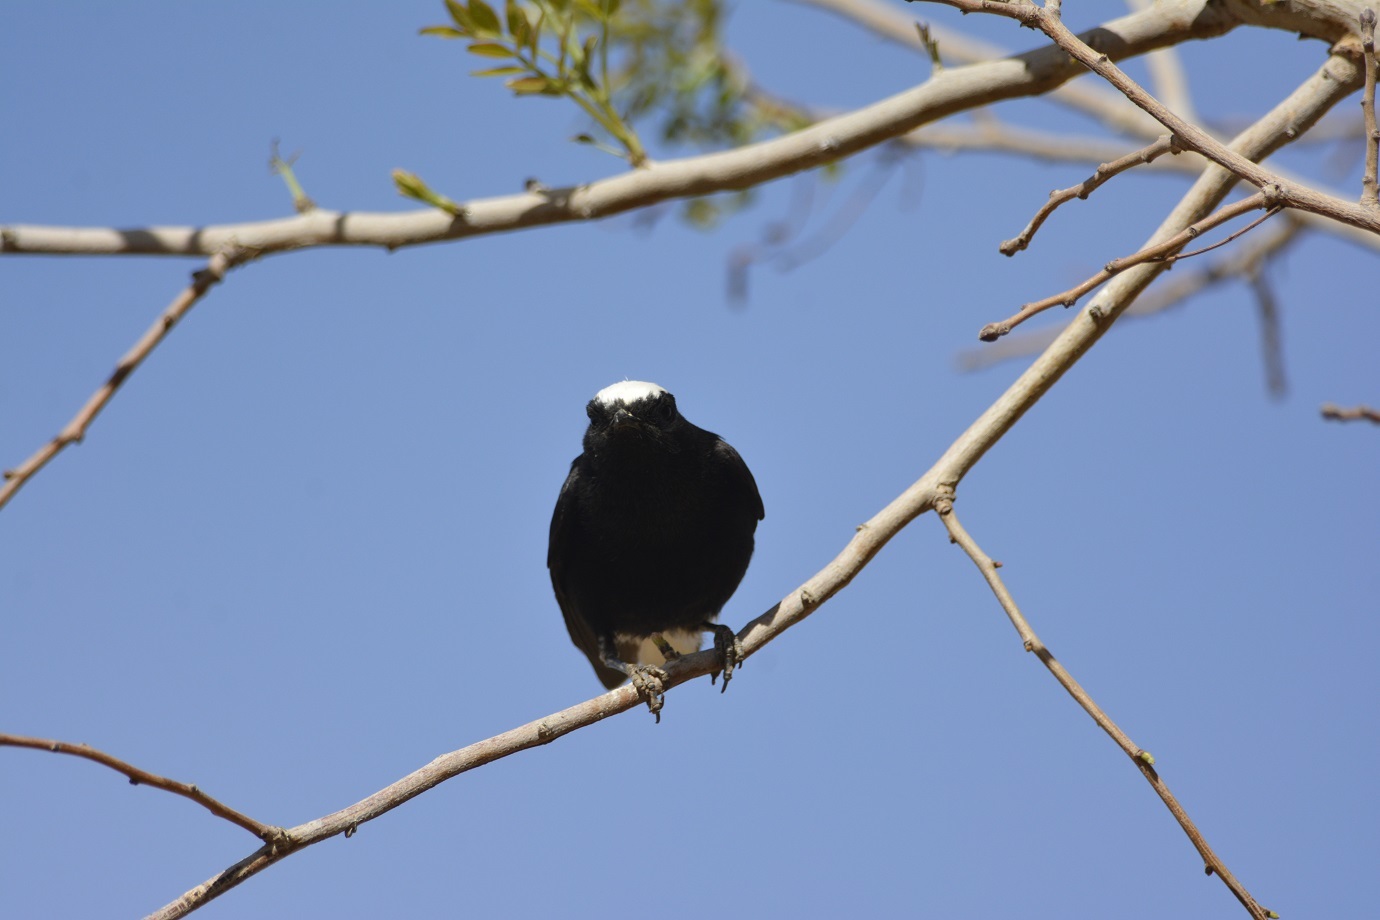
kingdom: Animalia
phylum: Chordata
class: Aves
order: Passeriformes
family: Muscicapidae
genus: Oenanthe
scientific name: Oenanthe leucopyga
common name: White-crowned wheatear
